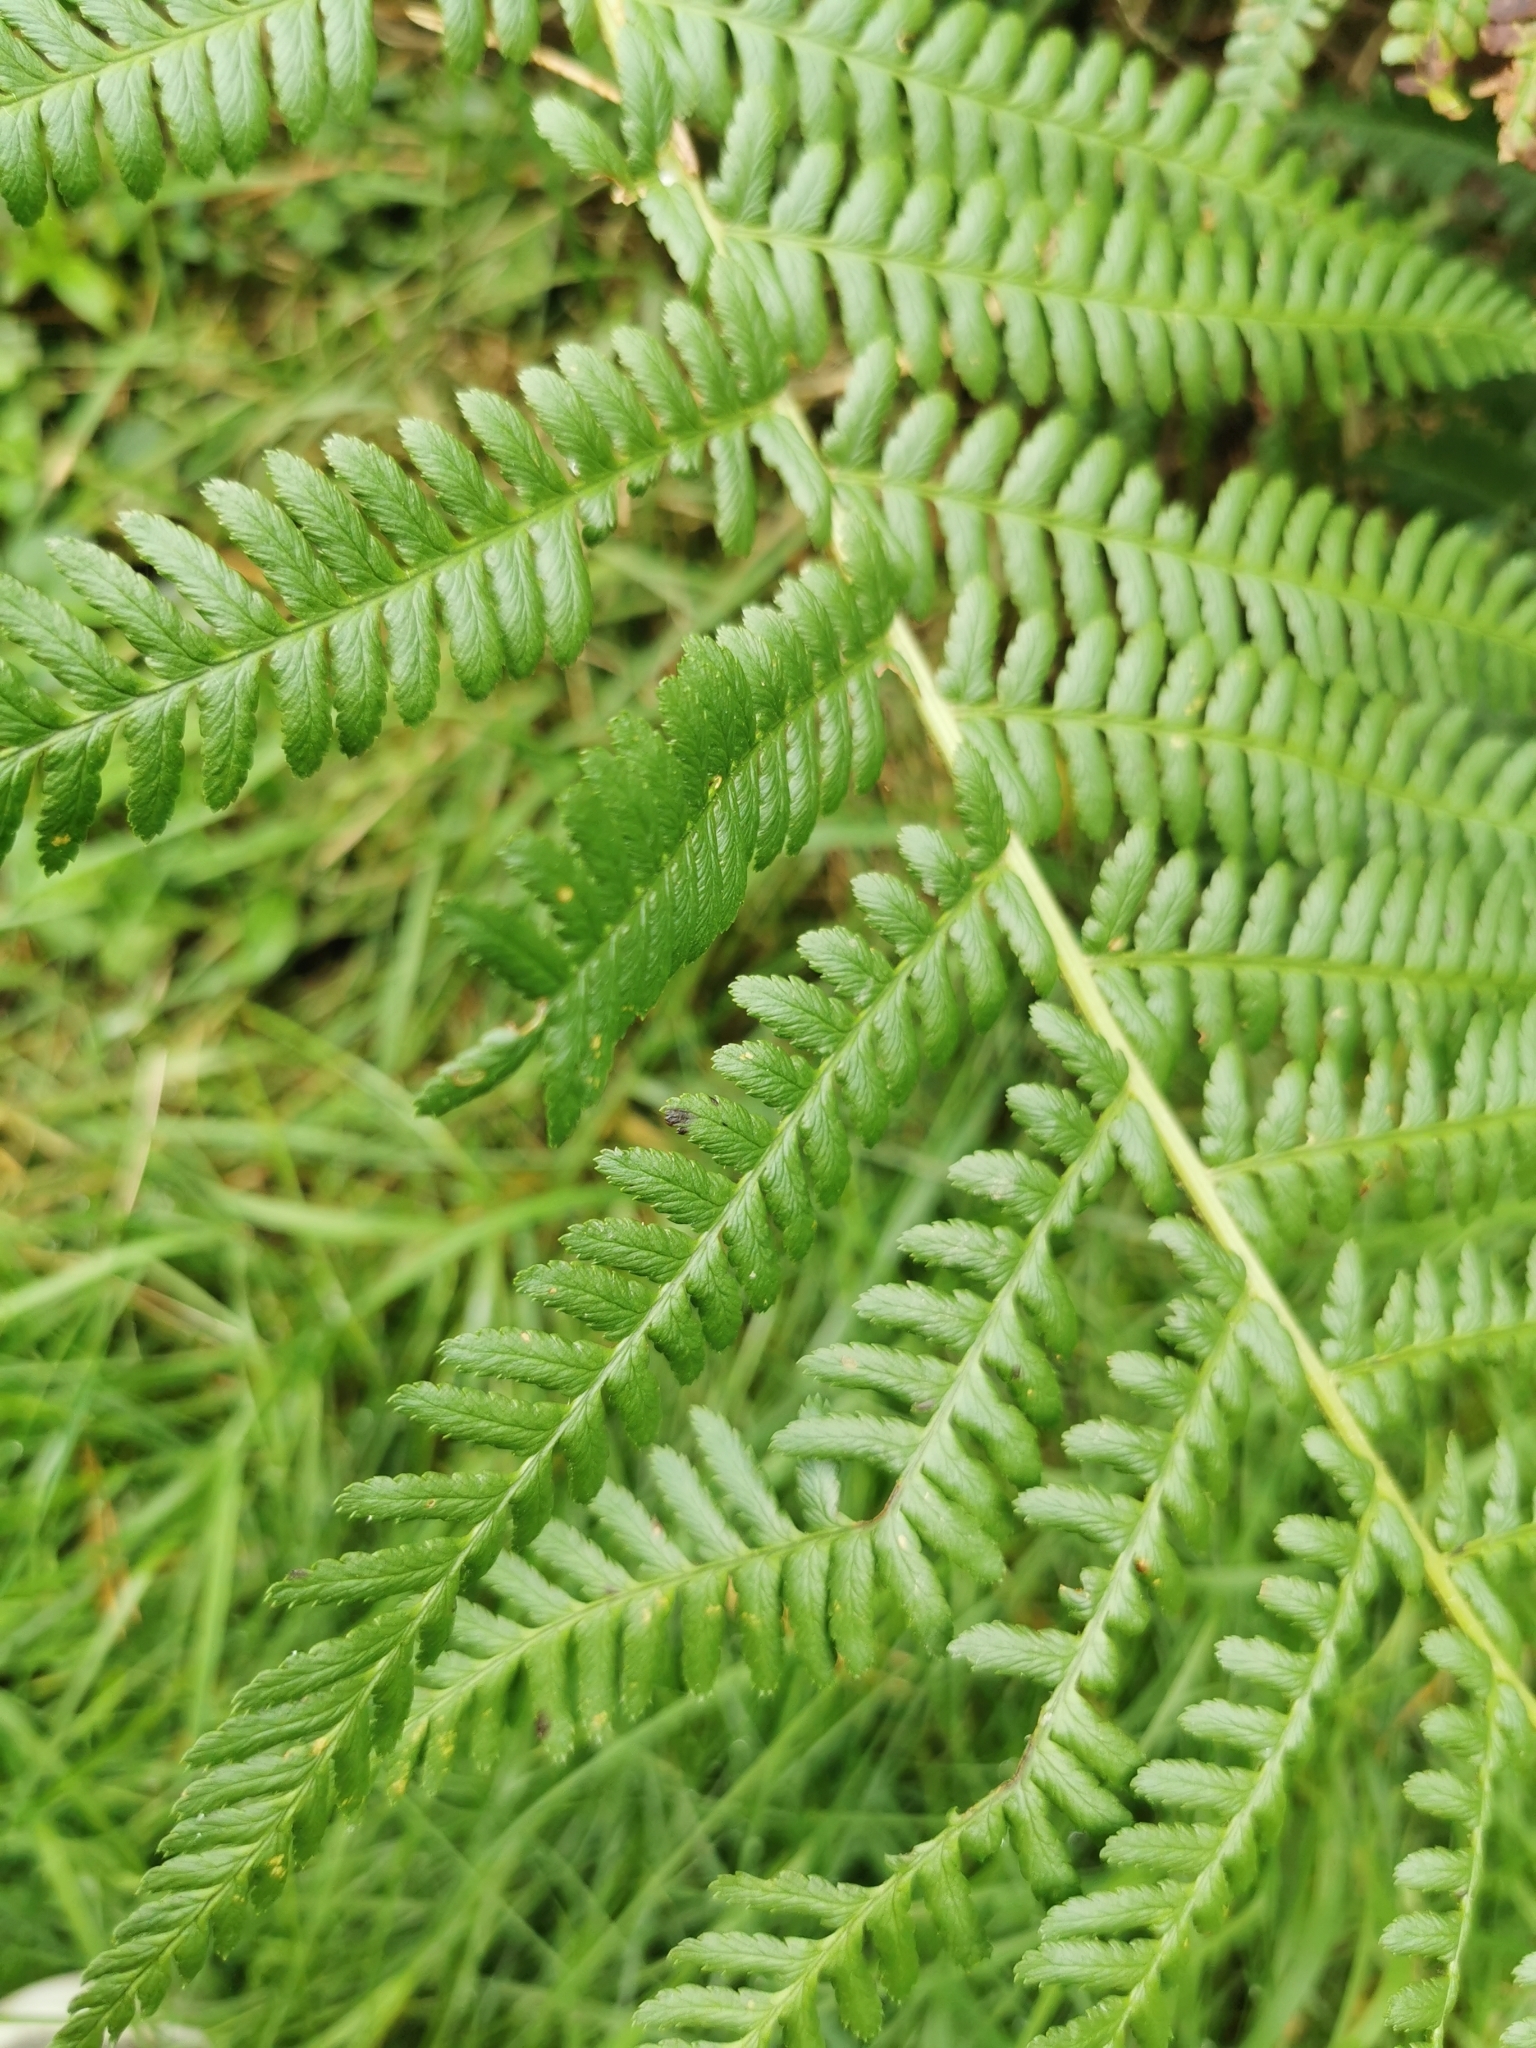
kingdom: Plantae
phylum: Tracheophyta
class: Polypodiopsida
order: Polypodiales
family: Dryopteridaceae
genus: Dryopteris
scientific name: Dryopteris filix-mas
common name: Male fern
